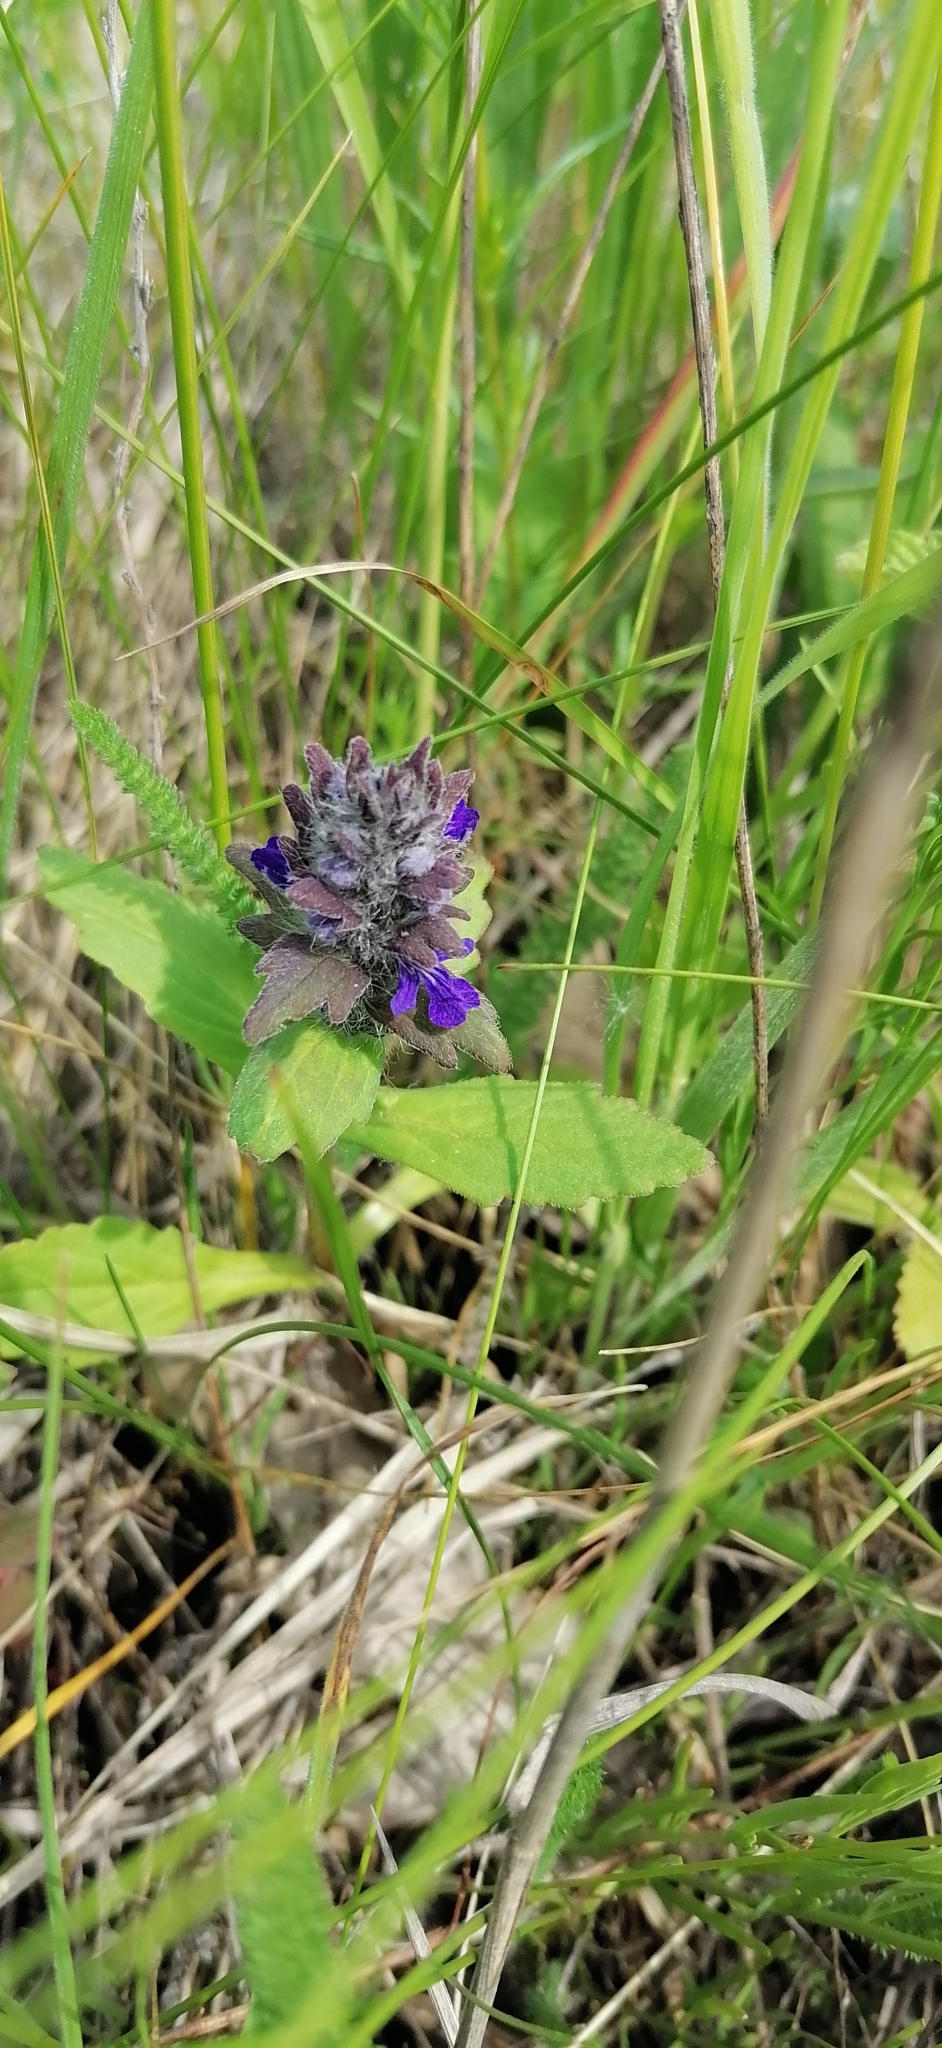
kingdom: Plantae
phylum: Tracheophyta
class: Magnoliopsida
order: Lamiales
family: Lamiaceae
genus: Ajuga
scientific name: Ajuga genevensis
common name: Blue bugle
